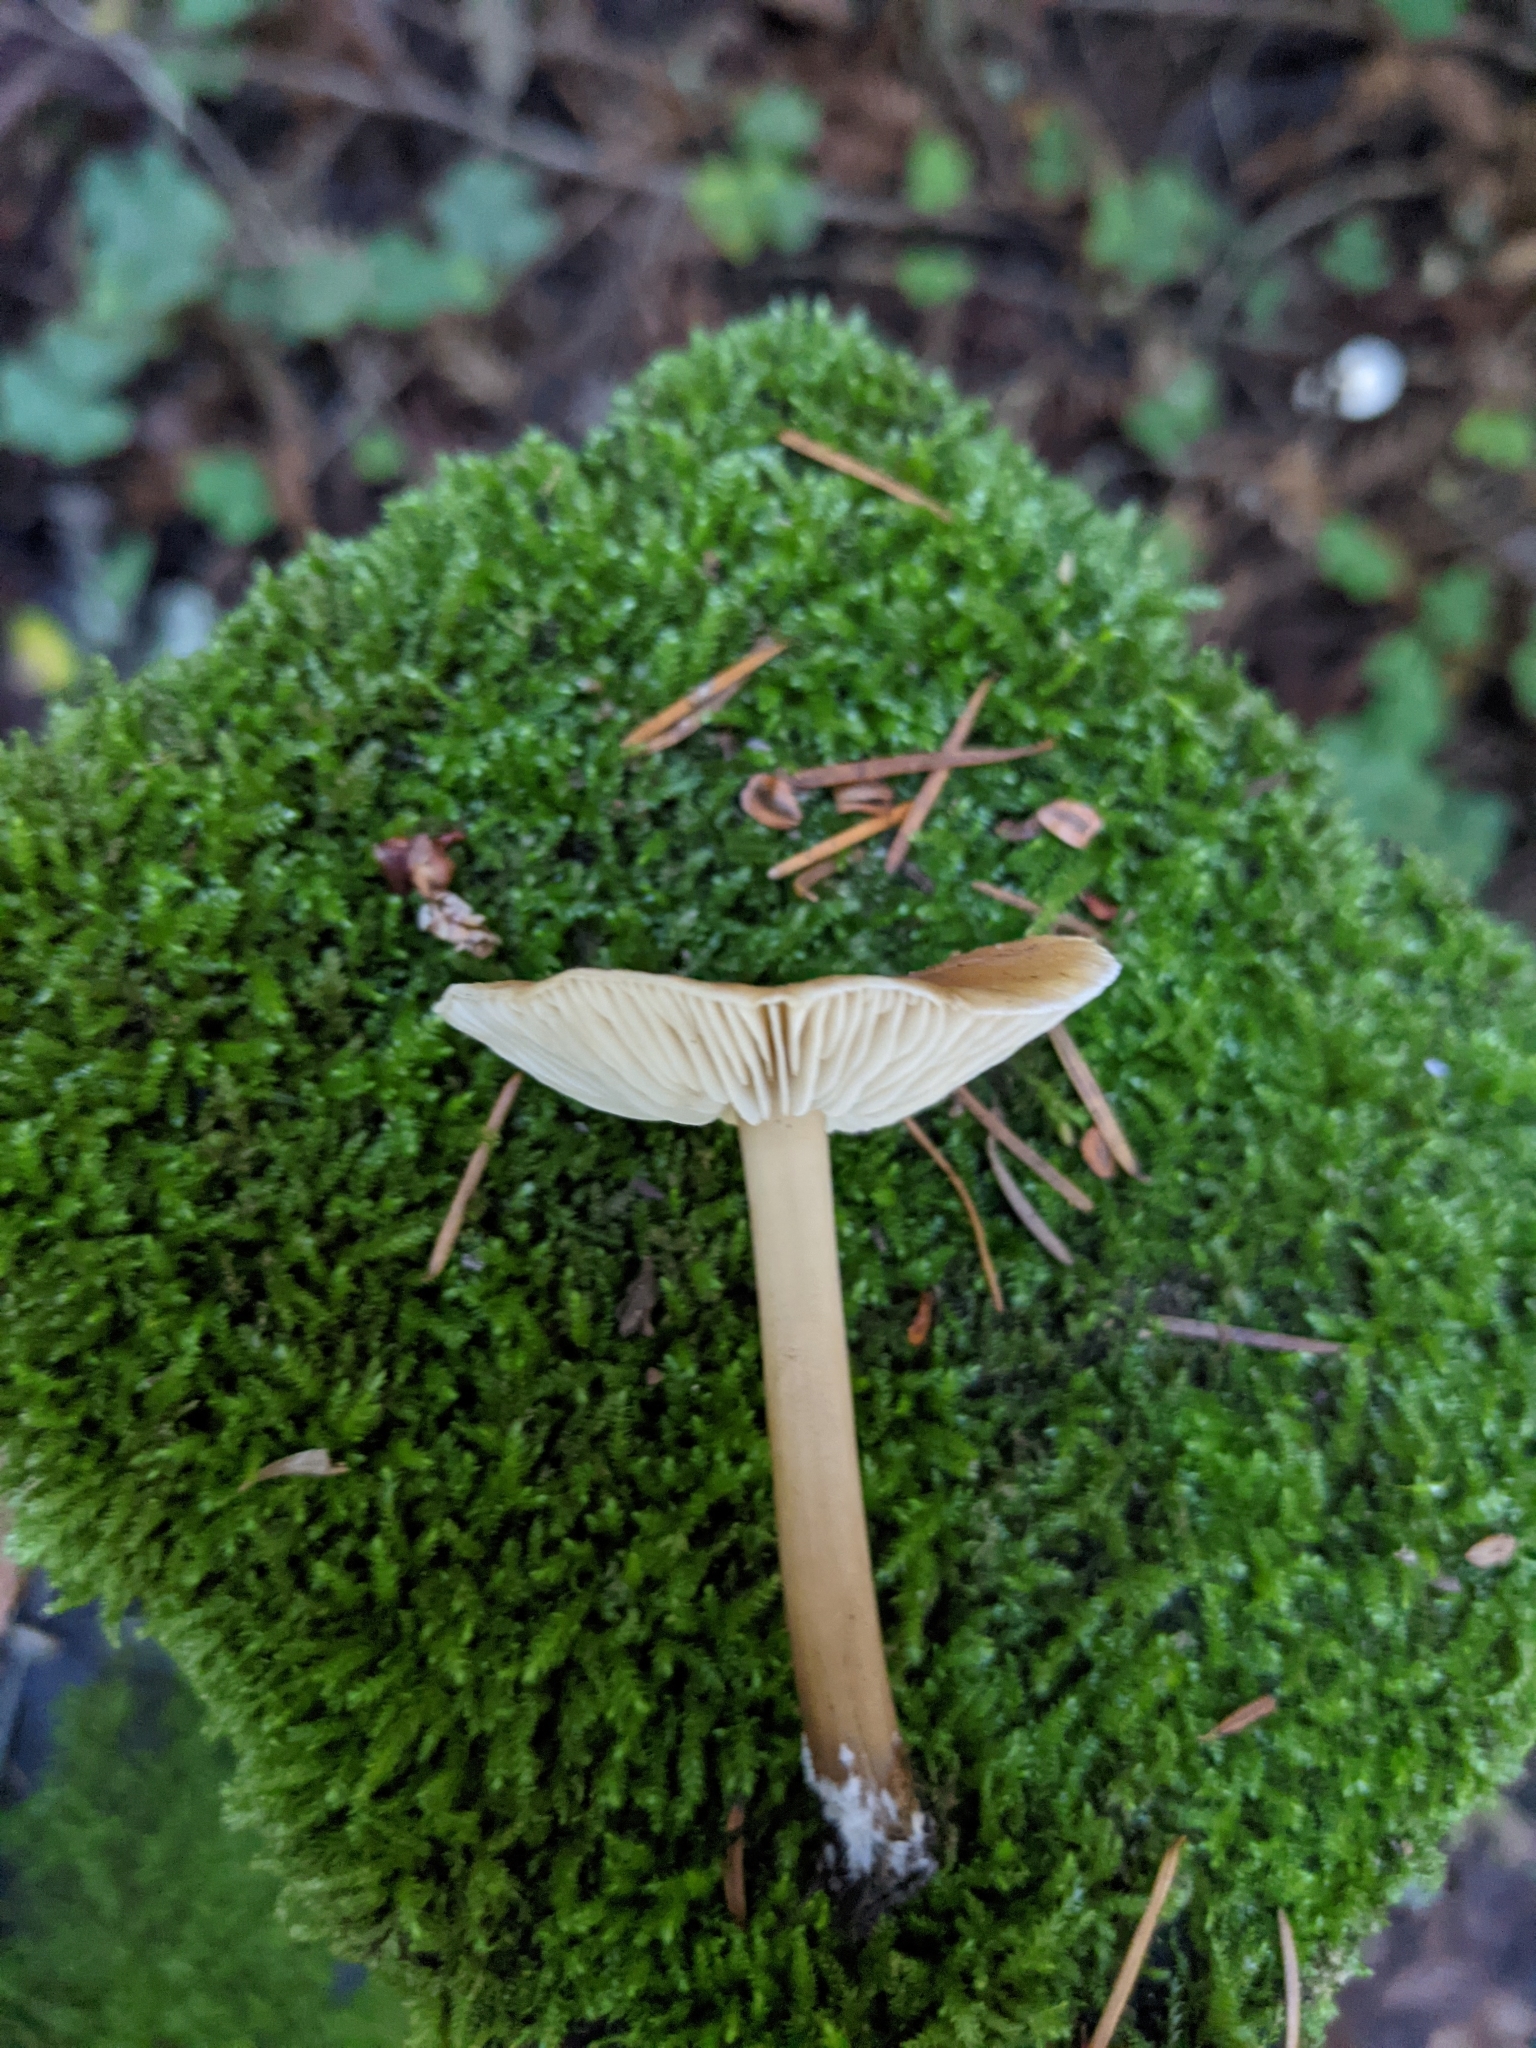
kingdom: Fungi
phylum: Basidiomycota
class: Agaricomycetes
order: Agaricales
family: Tricholomataceae
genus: Caulorhiza
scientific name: Caulorhiza umbonata
